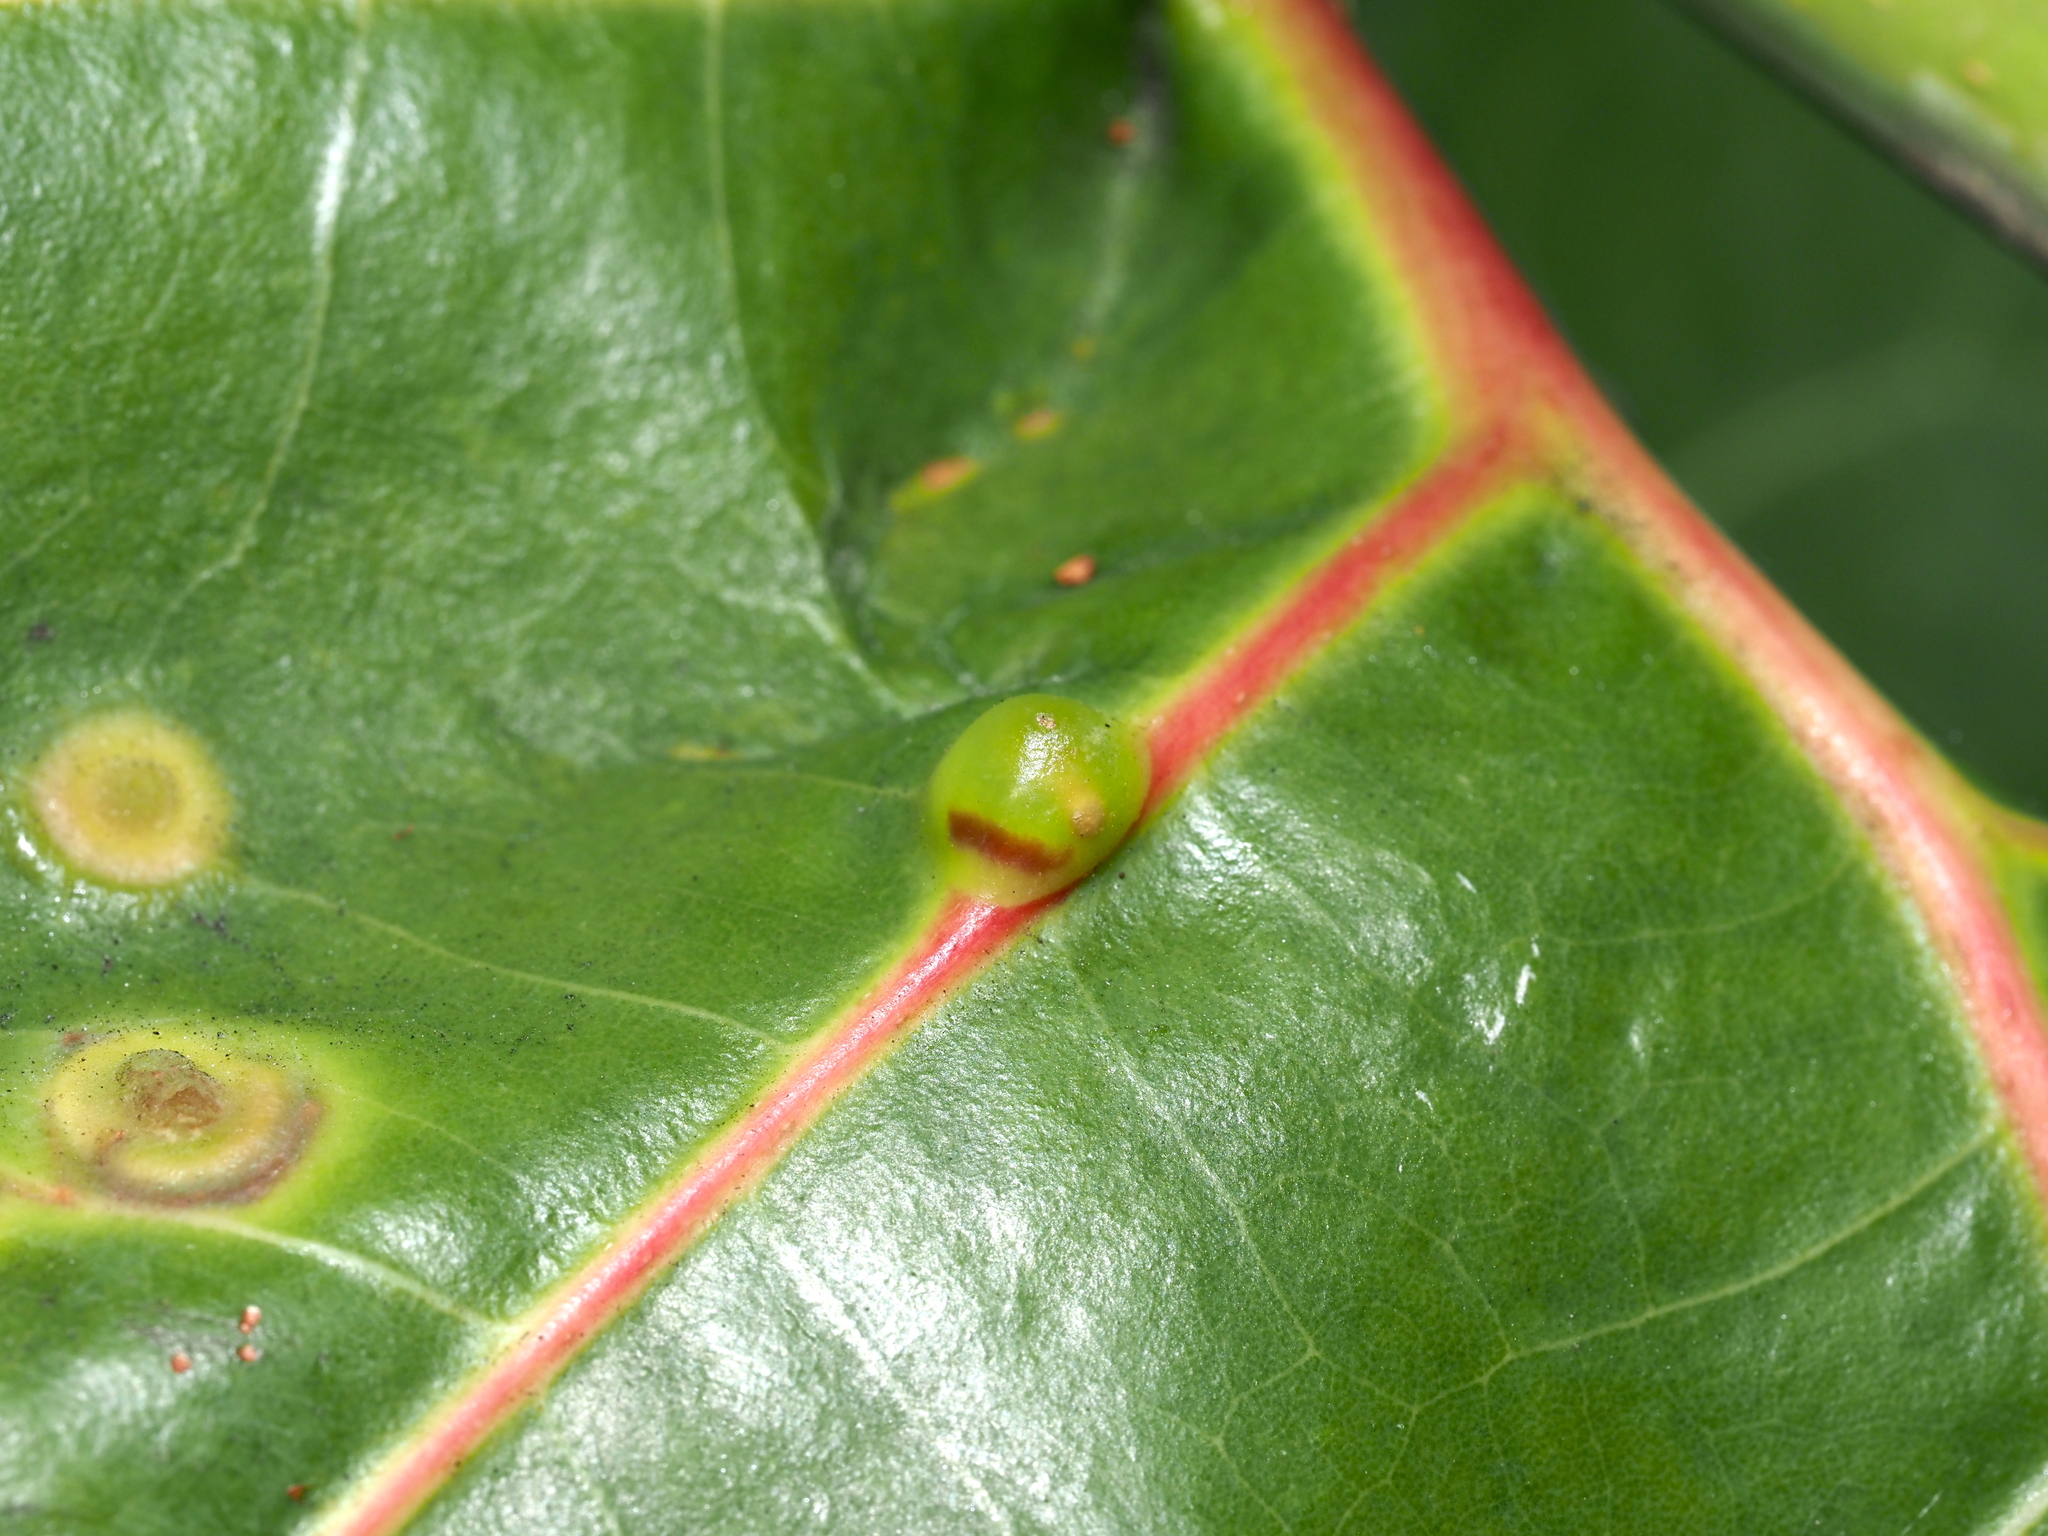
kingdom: Animalia
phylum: Arthropoda
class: Insecta
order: Diptera
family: Cecidomyiidae
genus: Ctenodactylomyia
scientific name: Ctenodactylomyia watsoni
